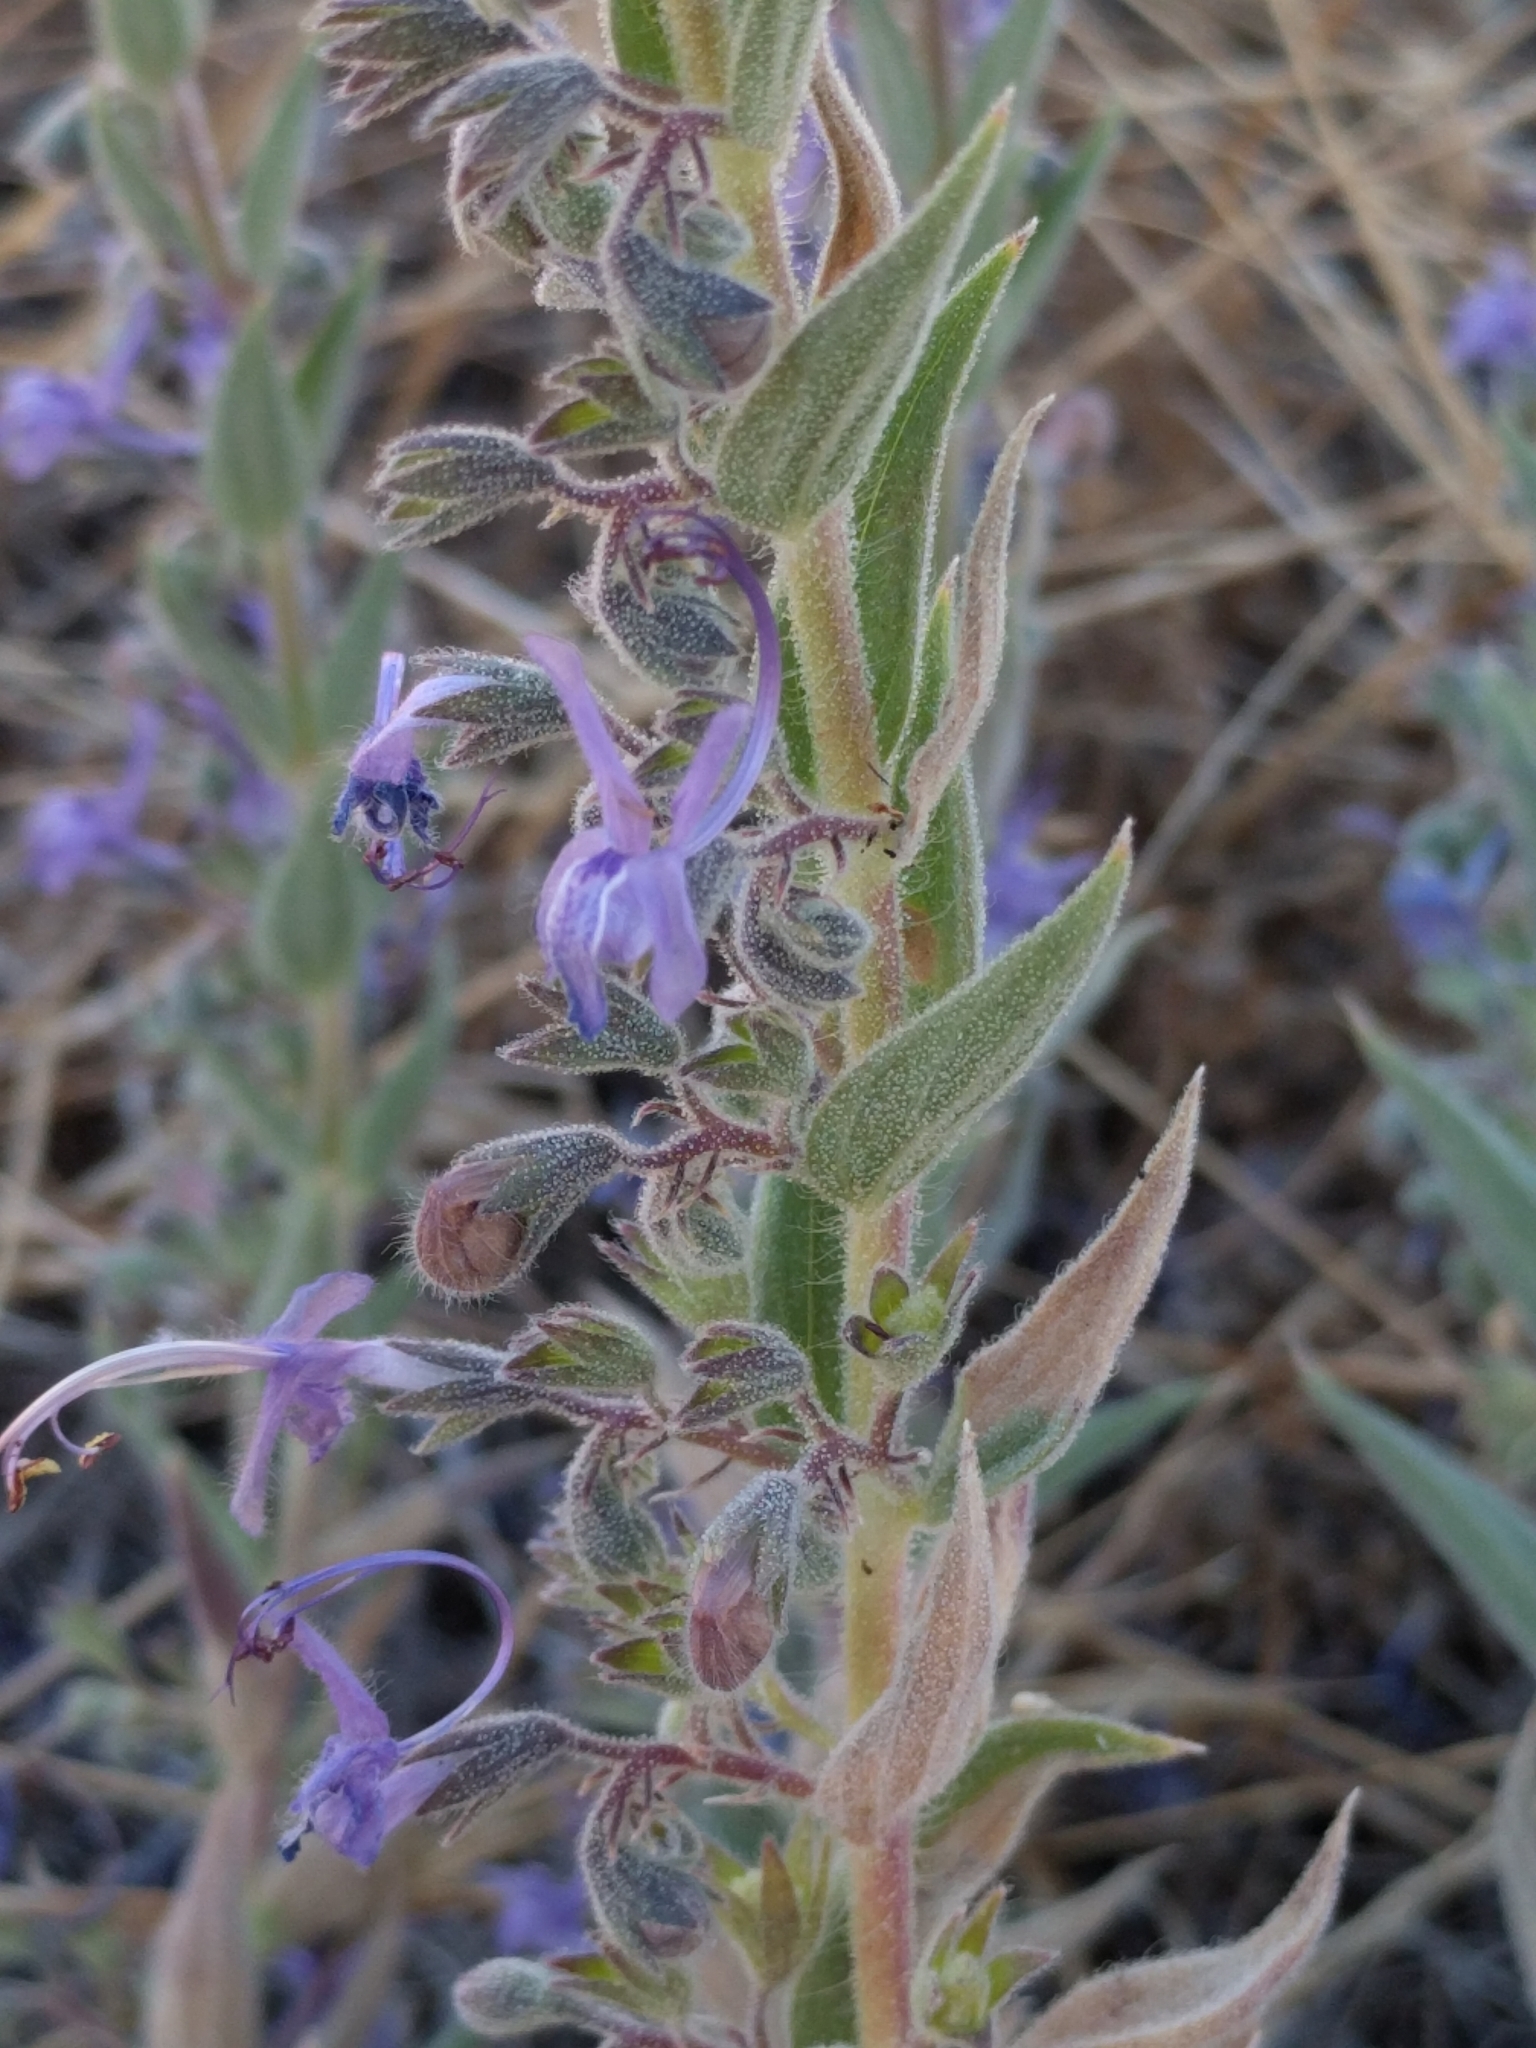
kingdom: Plantae
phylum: Tracheophyta
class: Magnoliopsida
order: Lamiales
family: Lamiaceae
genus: Trichostema
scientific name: Trichostema lanceolatum
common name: Vinegar-weed
